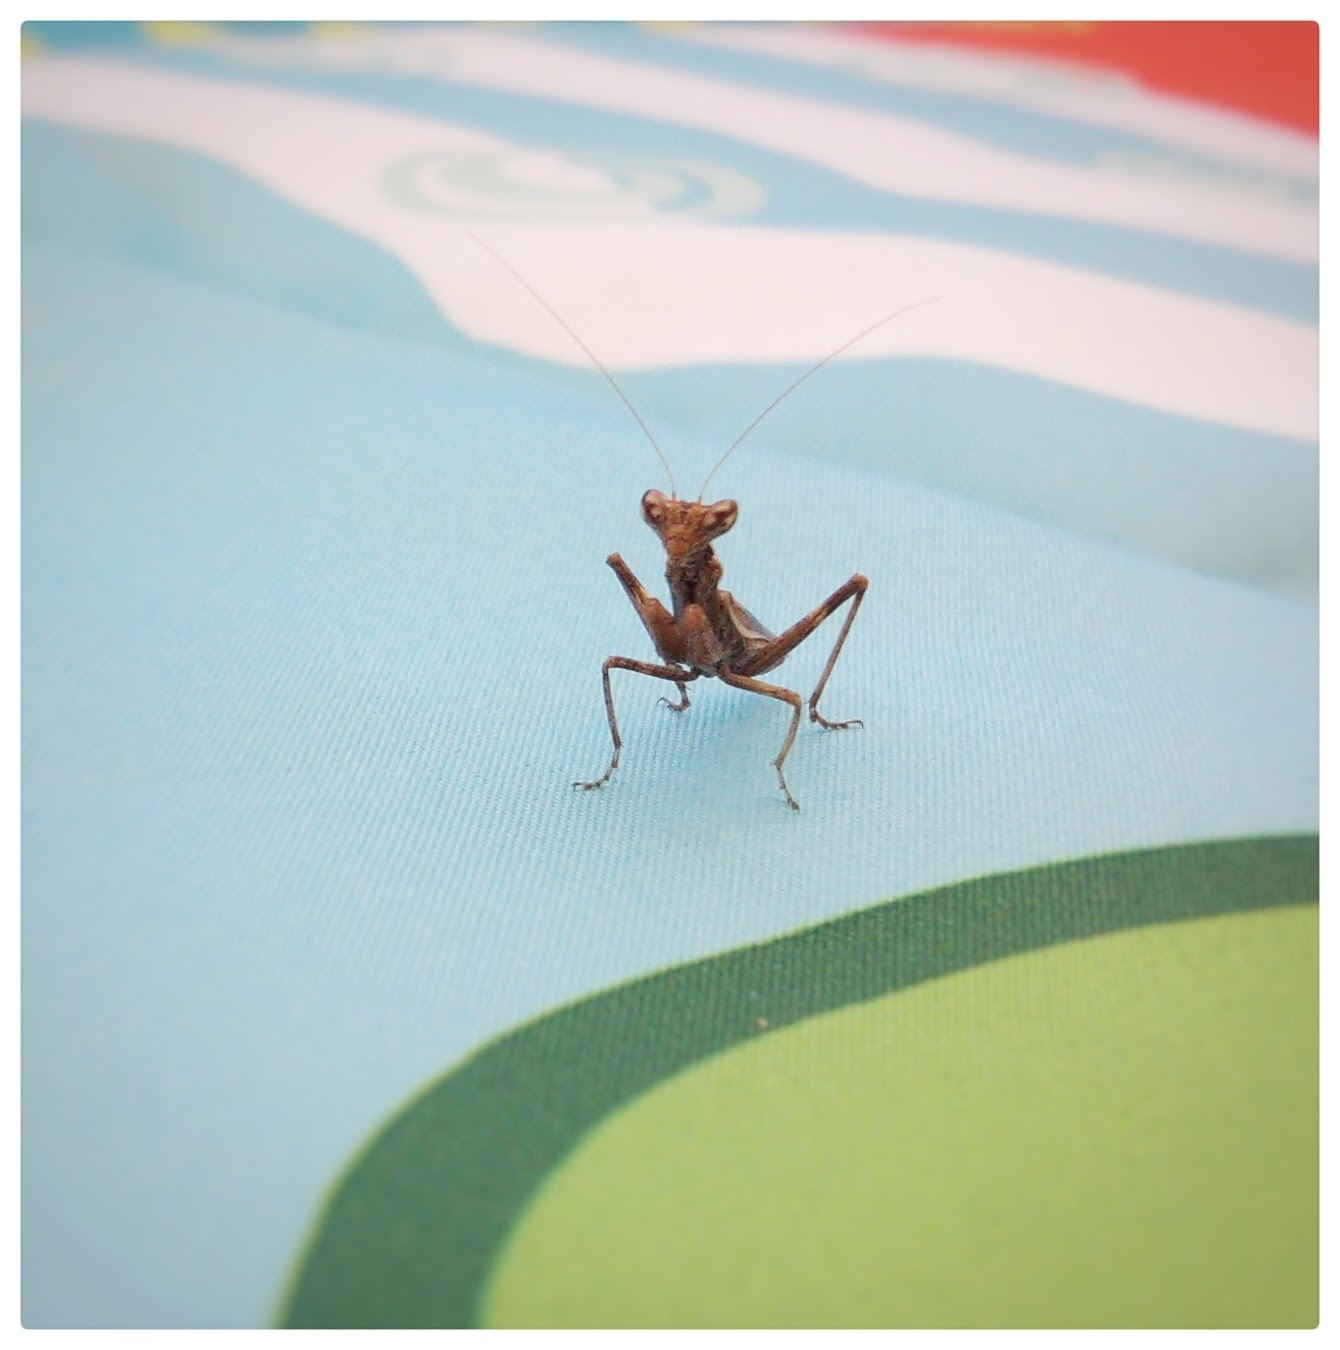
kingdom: Animalia
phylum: Arthropoda
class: Insecta
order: Mantodea
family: Amelidae
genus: Ameles
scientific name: Ameles spallanzania
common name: European dwarf mantis
